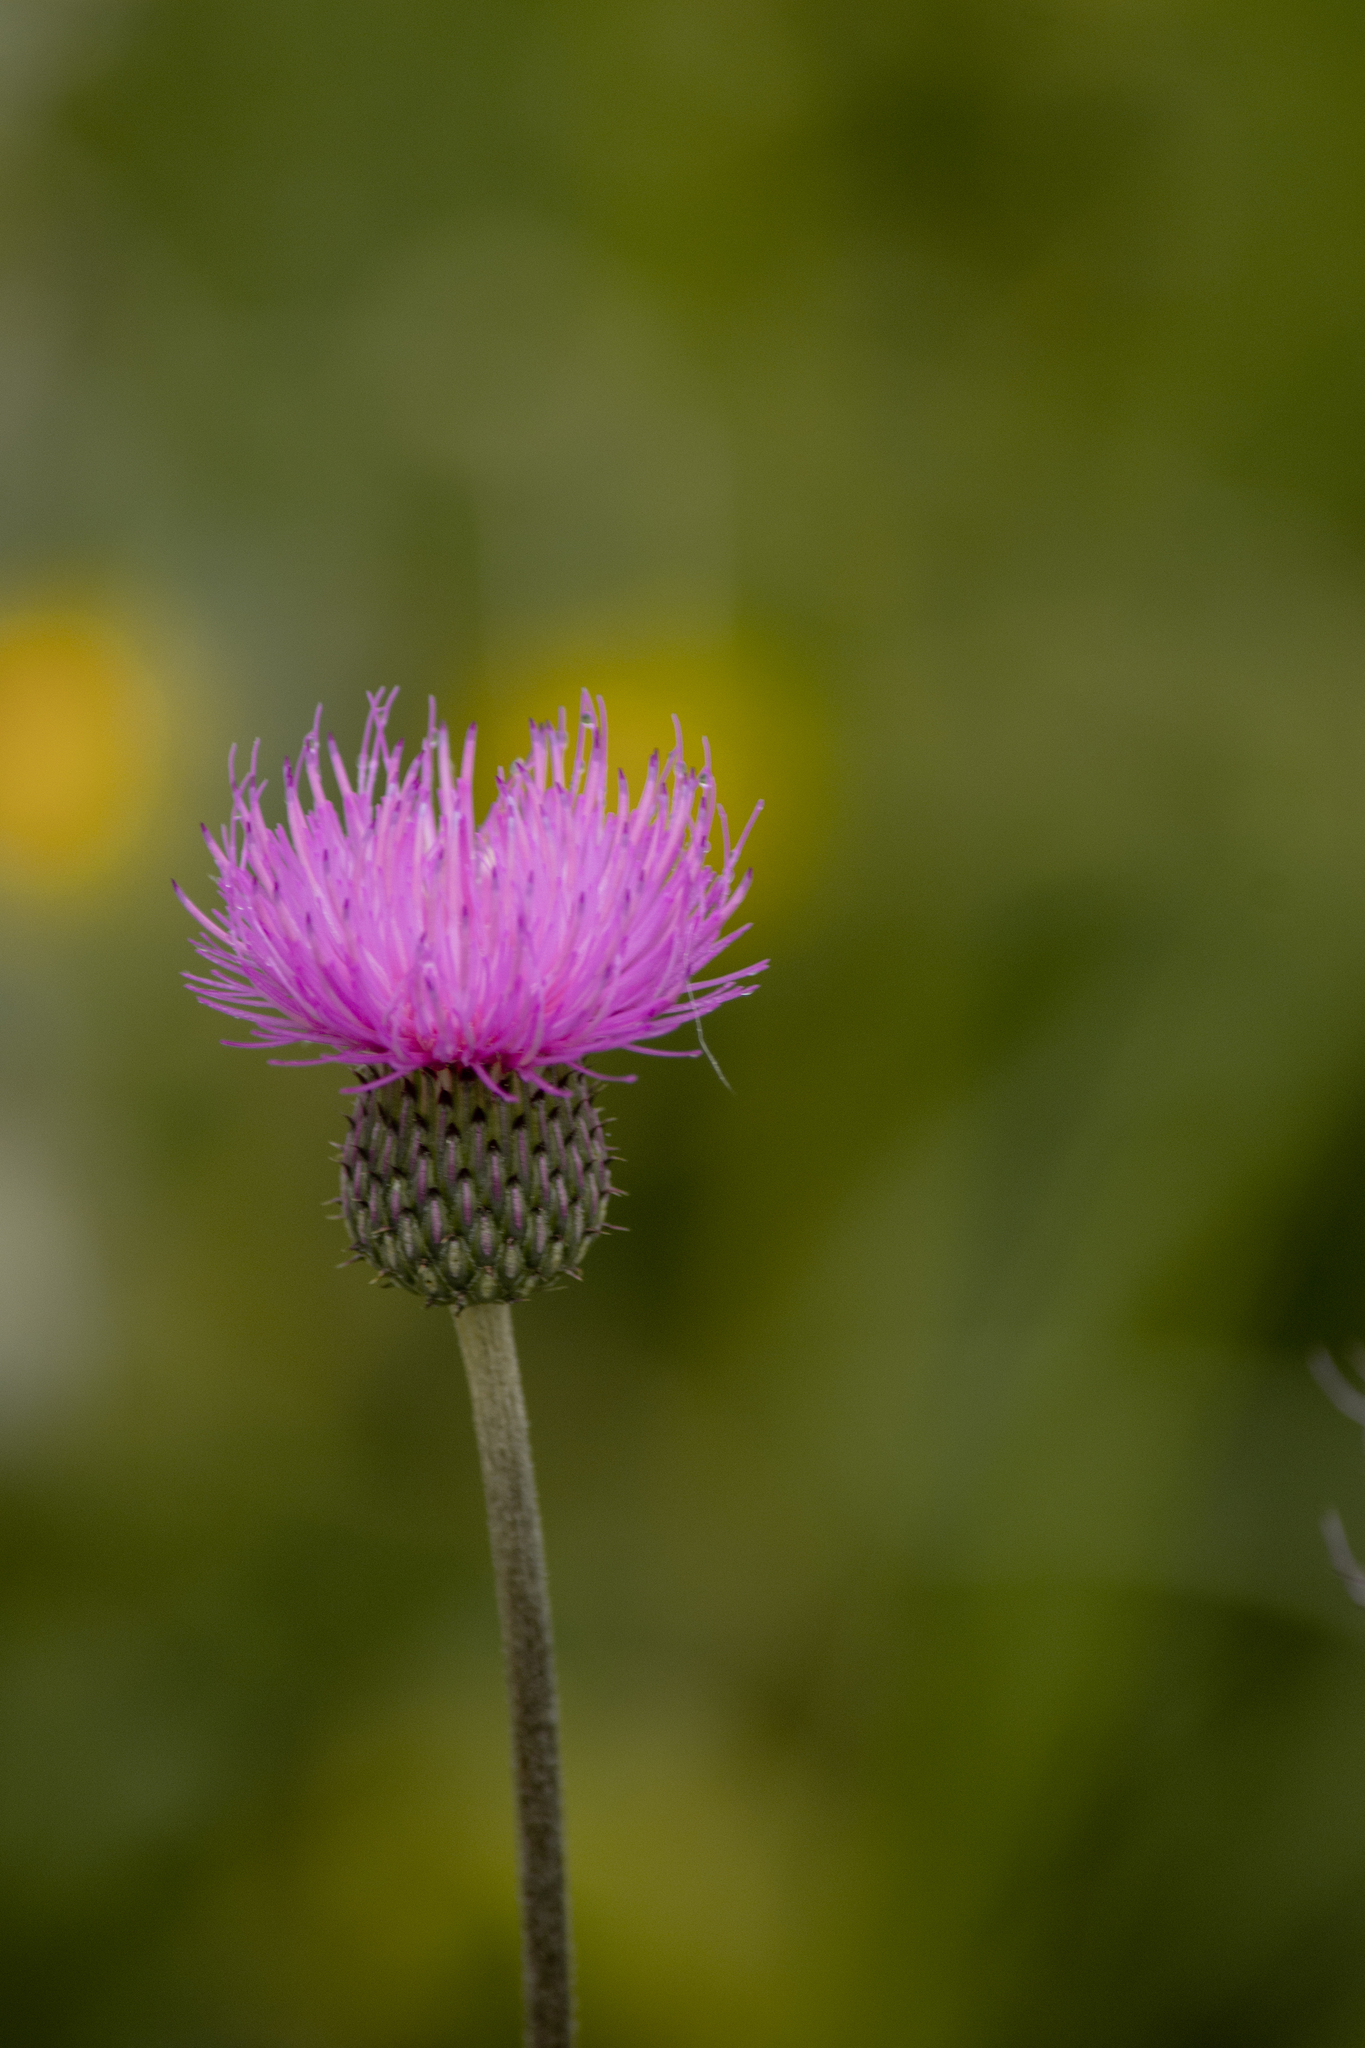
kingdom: Plantae
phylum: Tracheophyta
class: Magnoliopsida
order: Asterales
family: Asteraceae
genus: Cirsium
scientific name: Cirsium canum
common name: Queen anne's thistle
